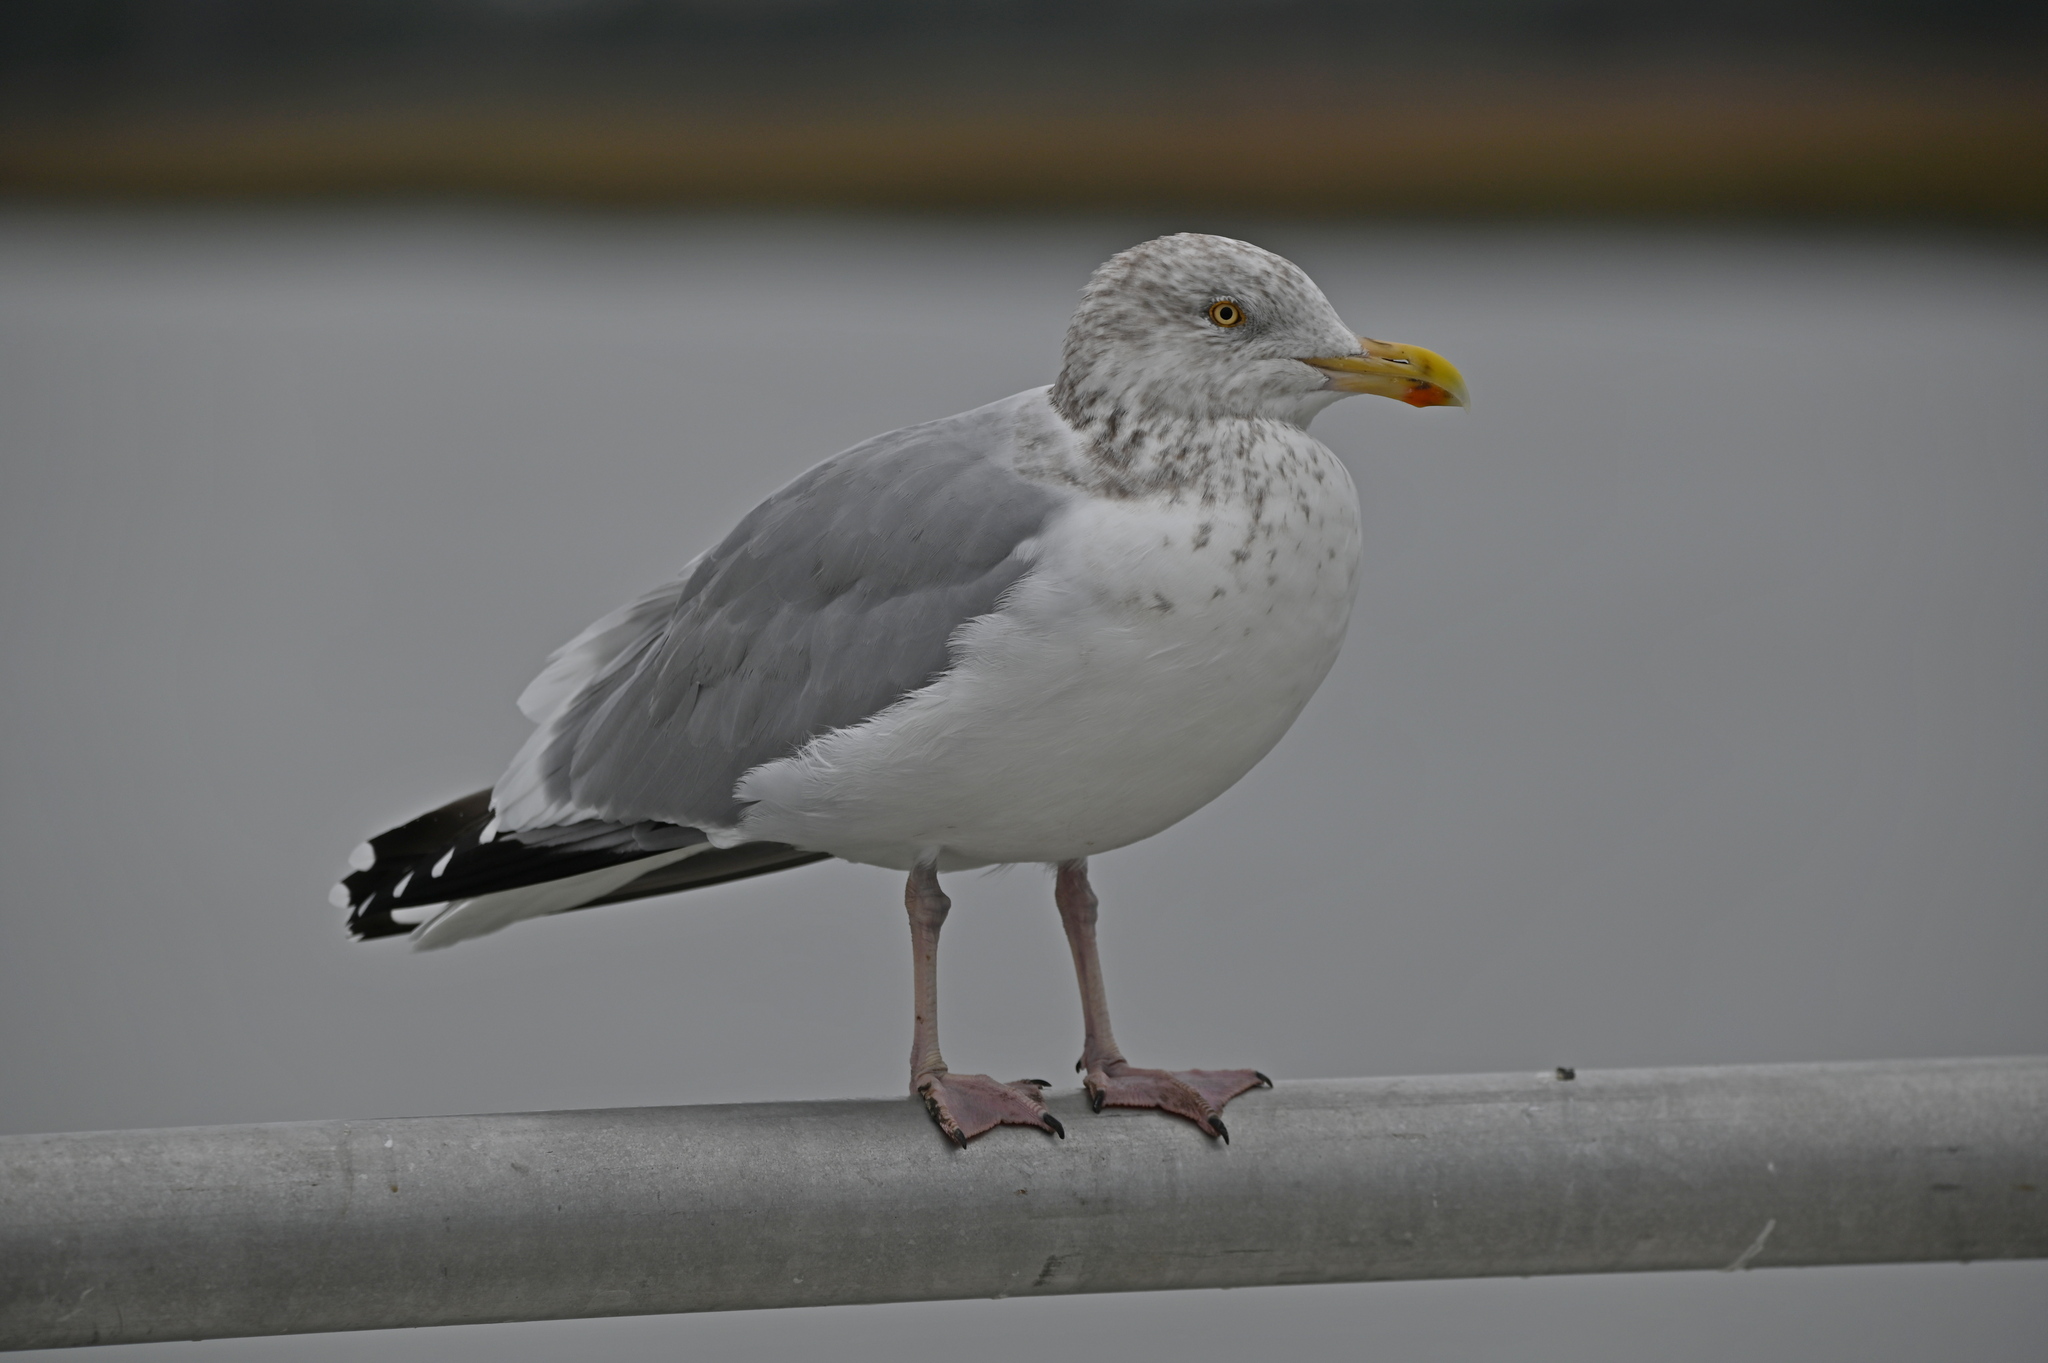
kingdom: Animalia
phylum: Chordata
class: Aves
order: Charadriiformes
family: Laridae
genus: Larus
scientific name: Larus argentatus
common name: Herring gull
